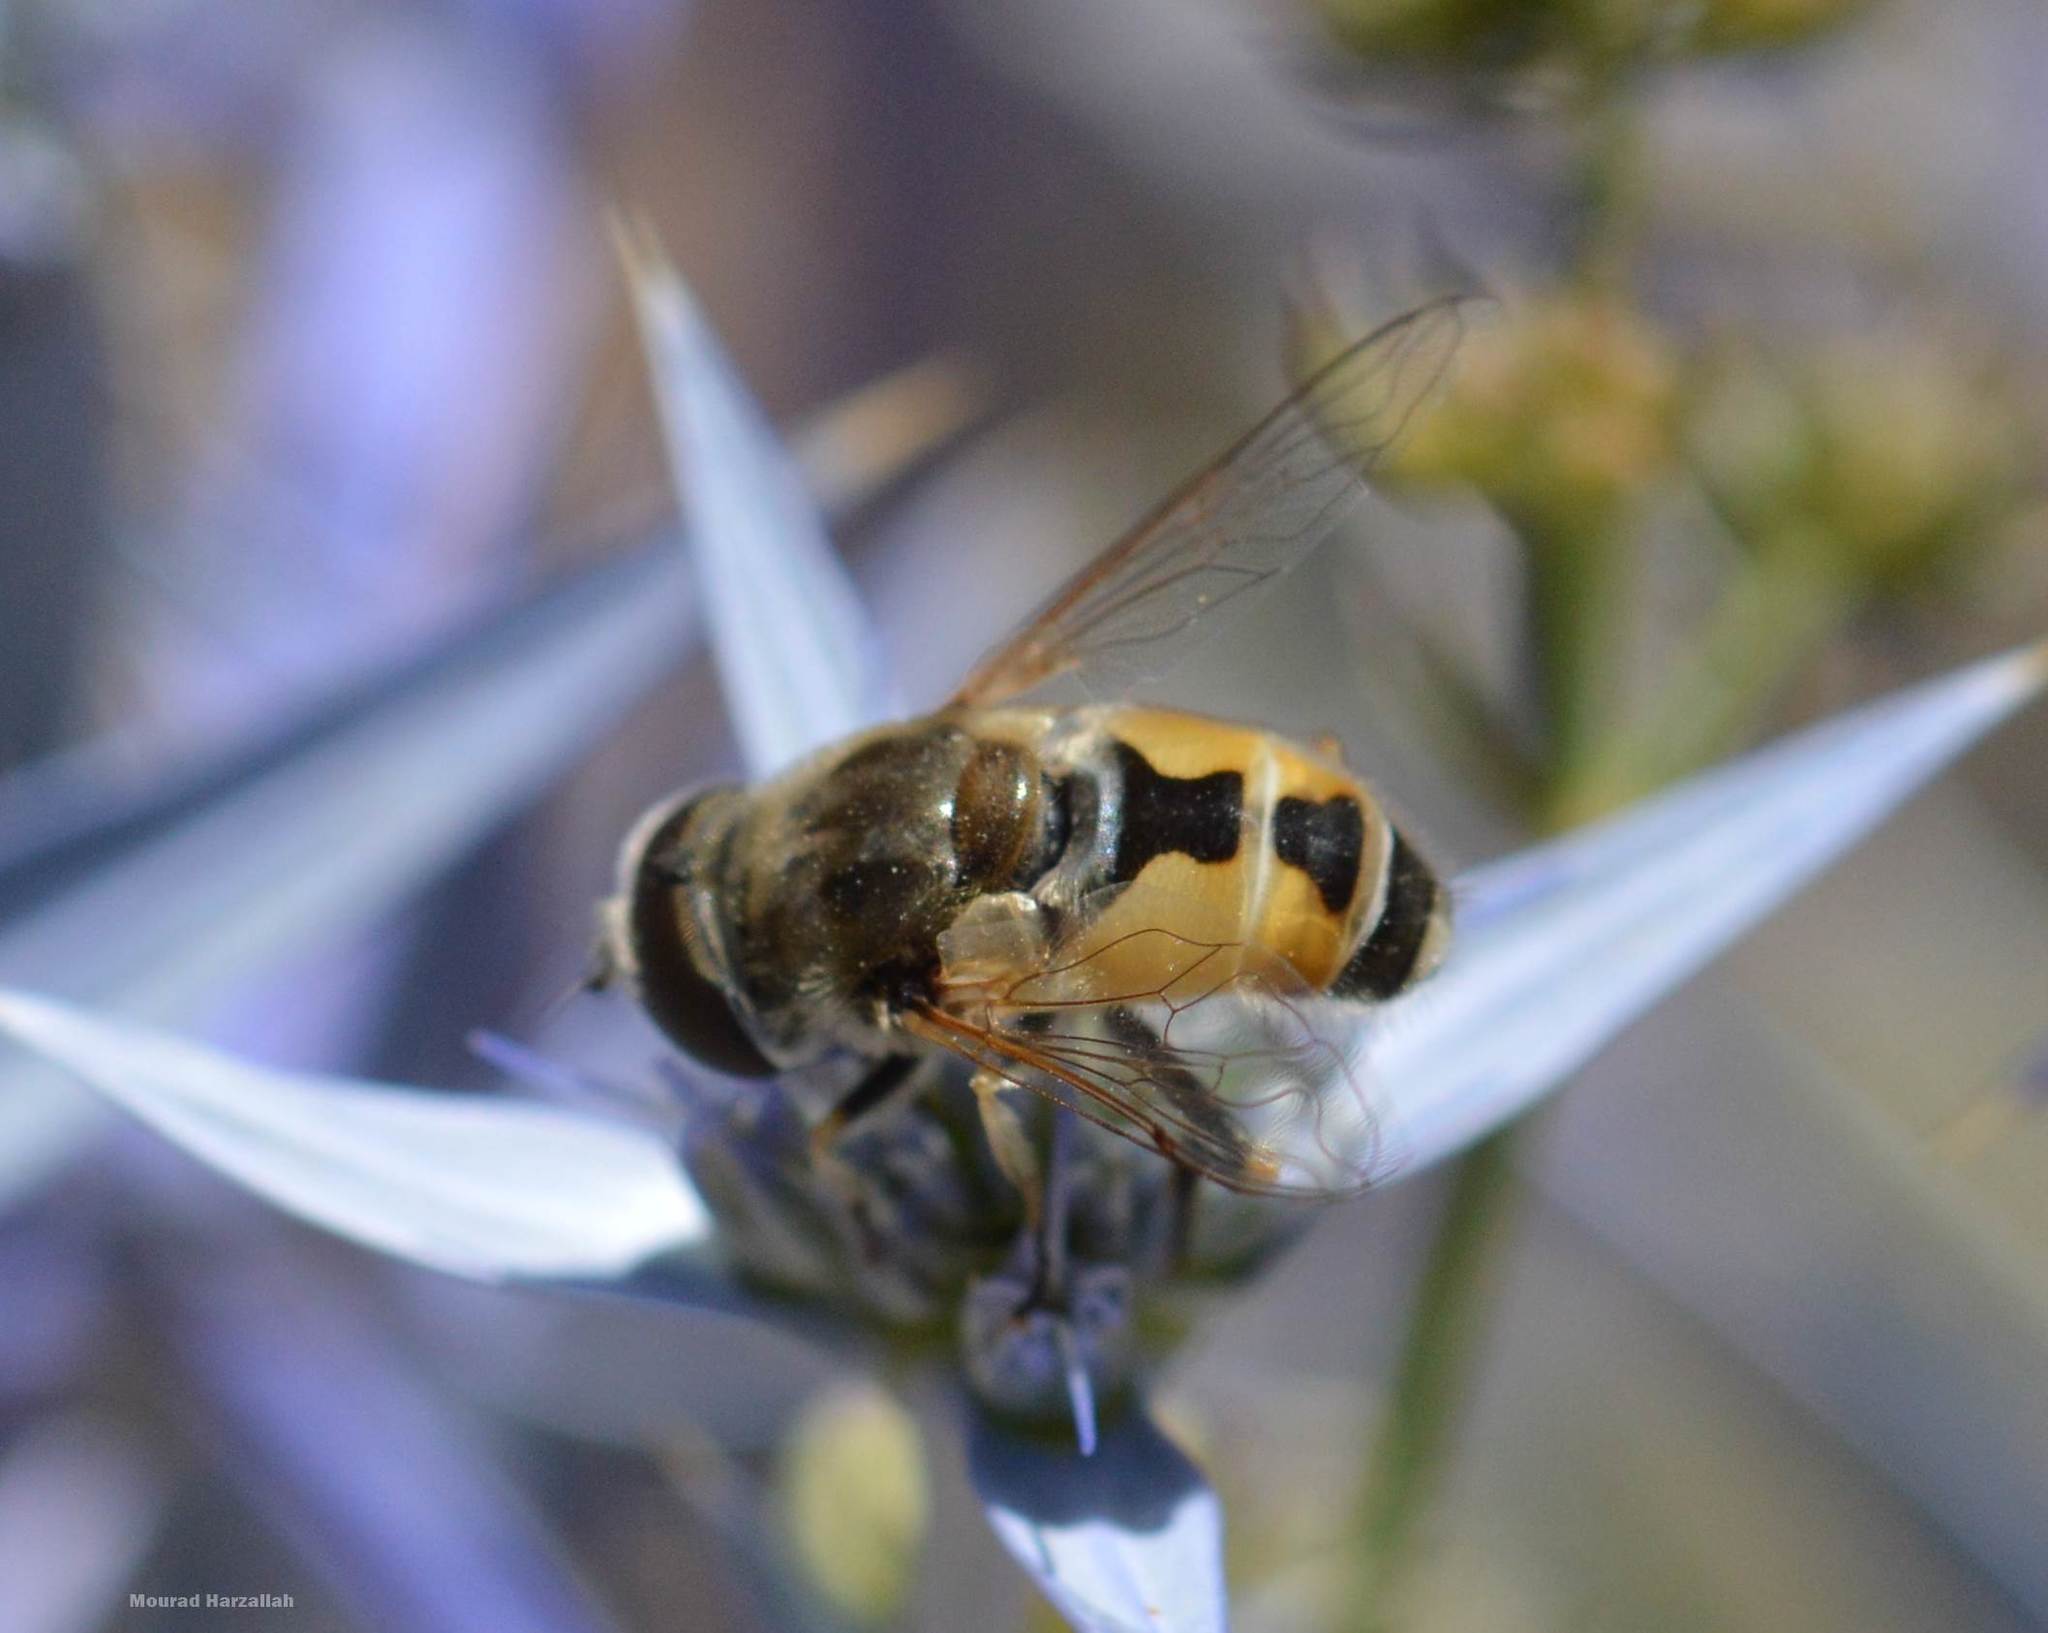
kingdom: Animalia
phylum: Arthropoda
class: Insecta
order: Diptera
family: Syrphidae
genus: Eristalis
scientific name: Eristalis arbustorum
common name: Hover fly
